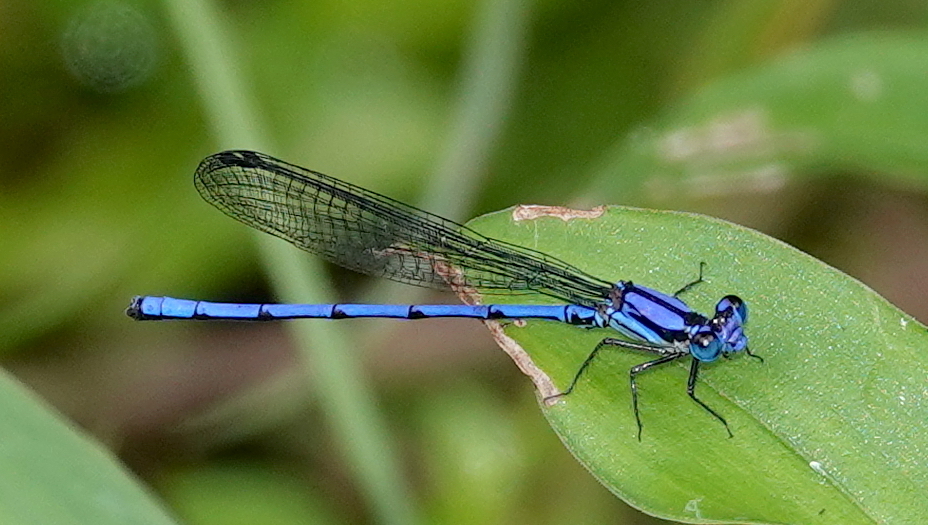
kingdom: Animalia
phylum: Arthropoda
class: Insecta
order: Odonata
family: Coenagrionidae
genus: Argia
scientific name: Argia medullaris
